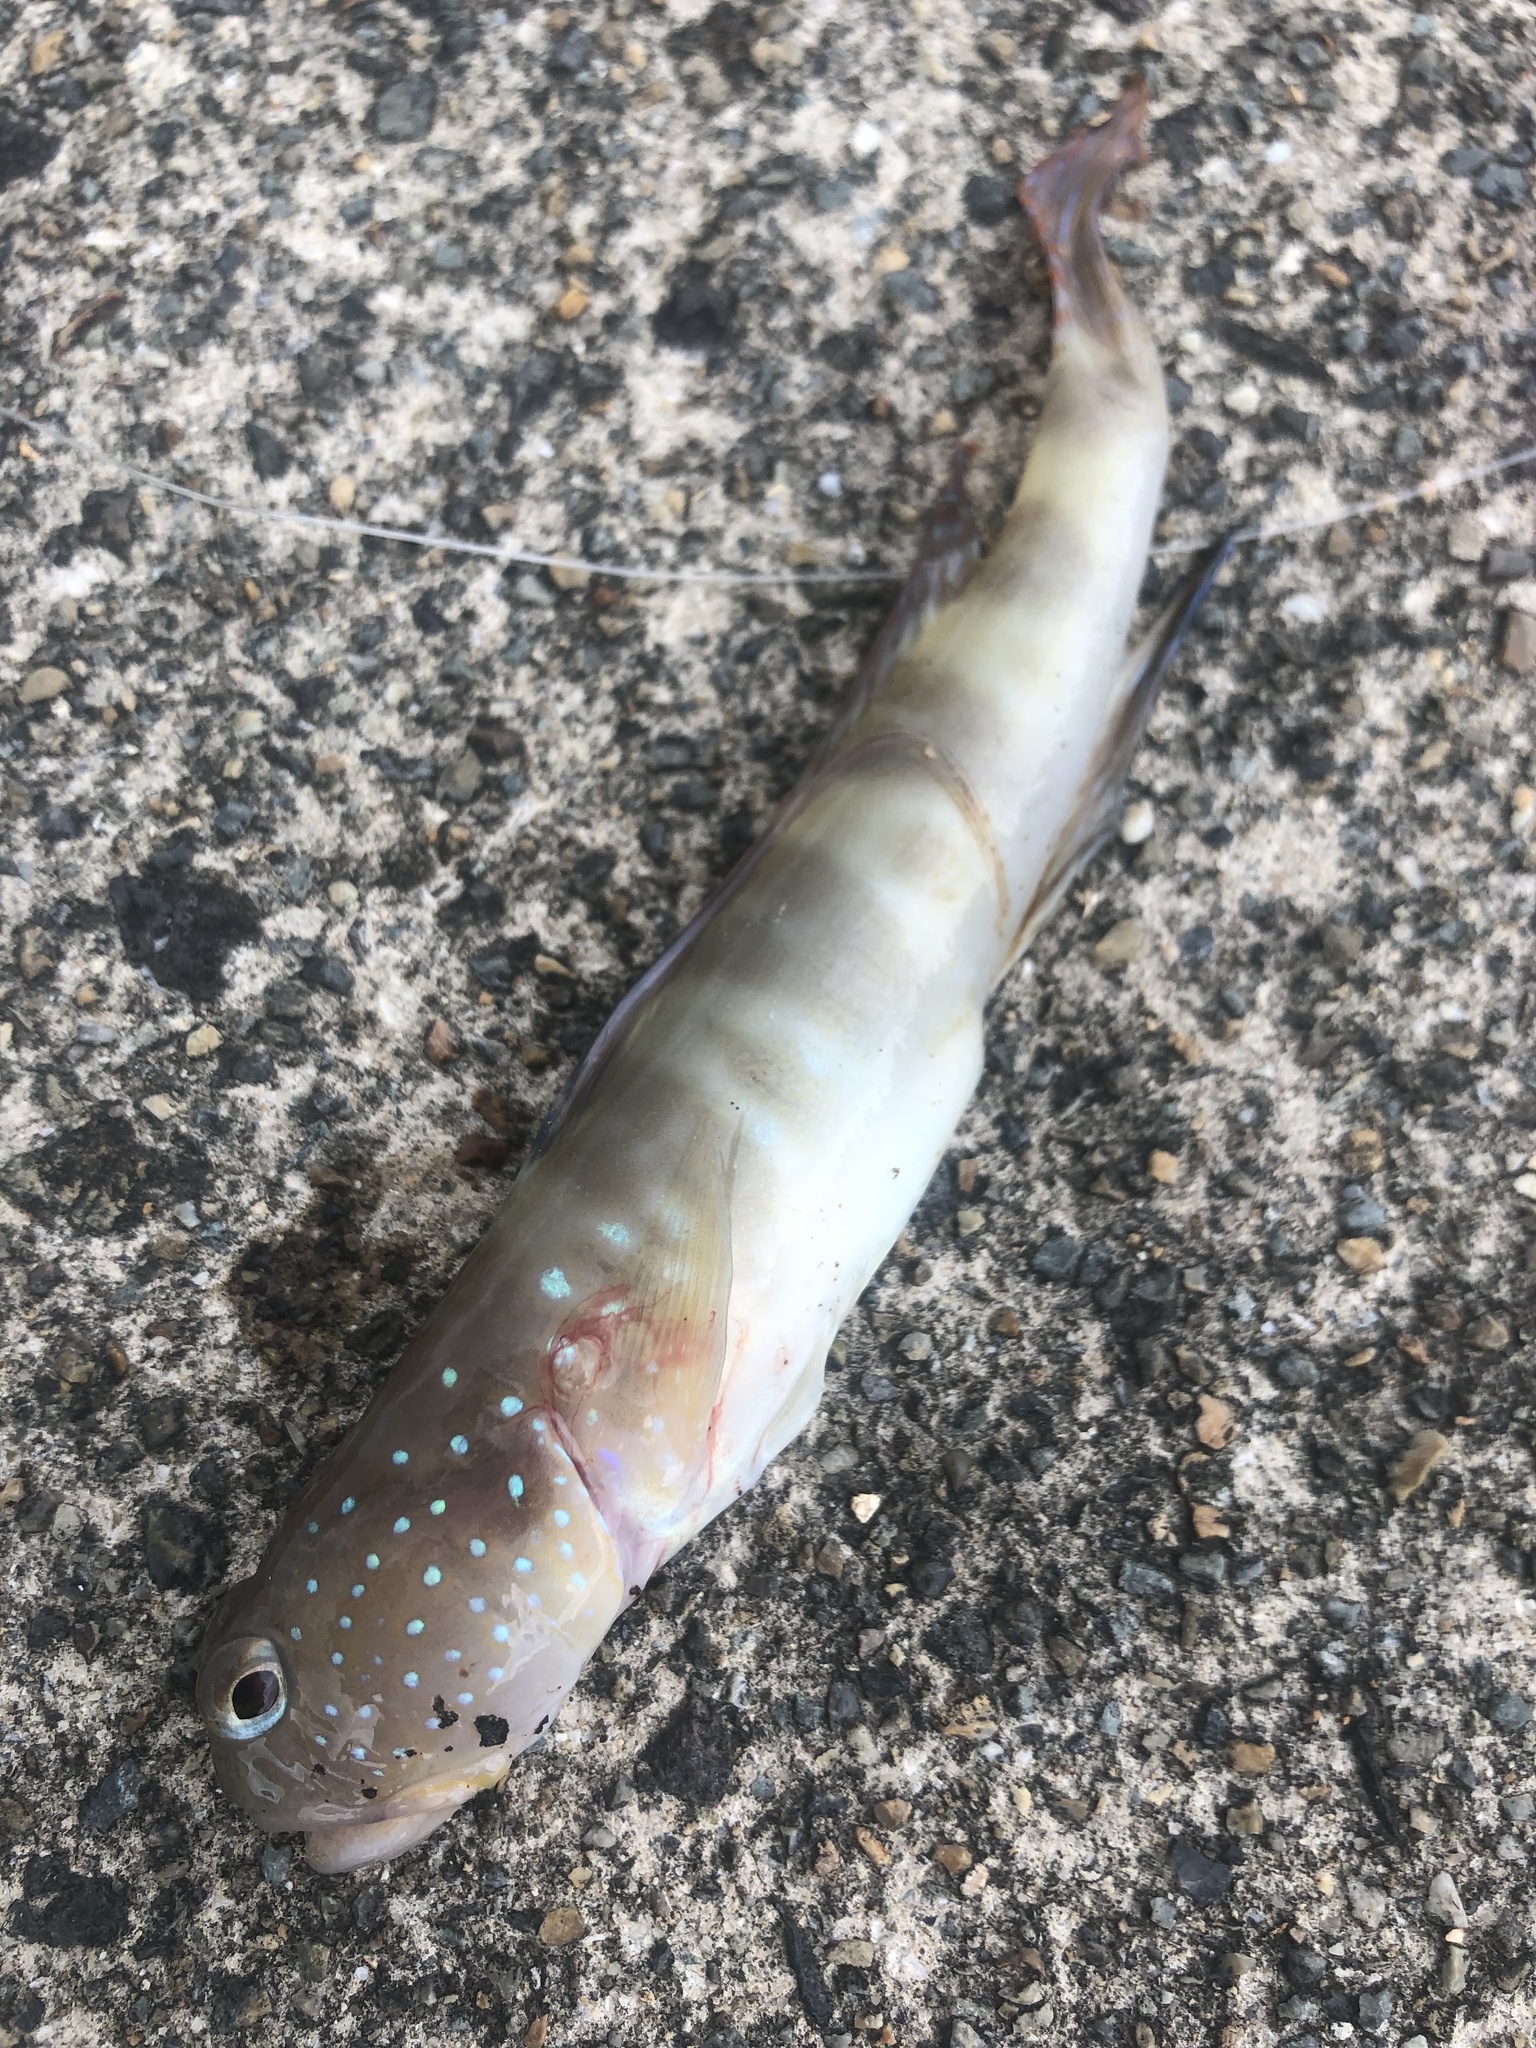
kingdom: Animalia
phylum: Chordata
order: Perciformes
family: Gobiidae
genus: Myersina
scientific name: Myersina filifer
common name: Thread goby
